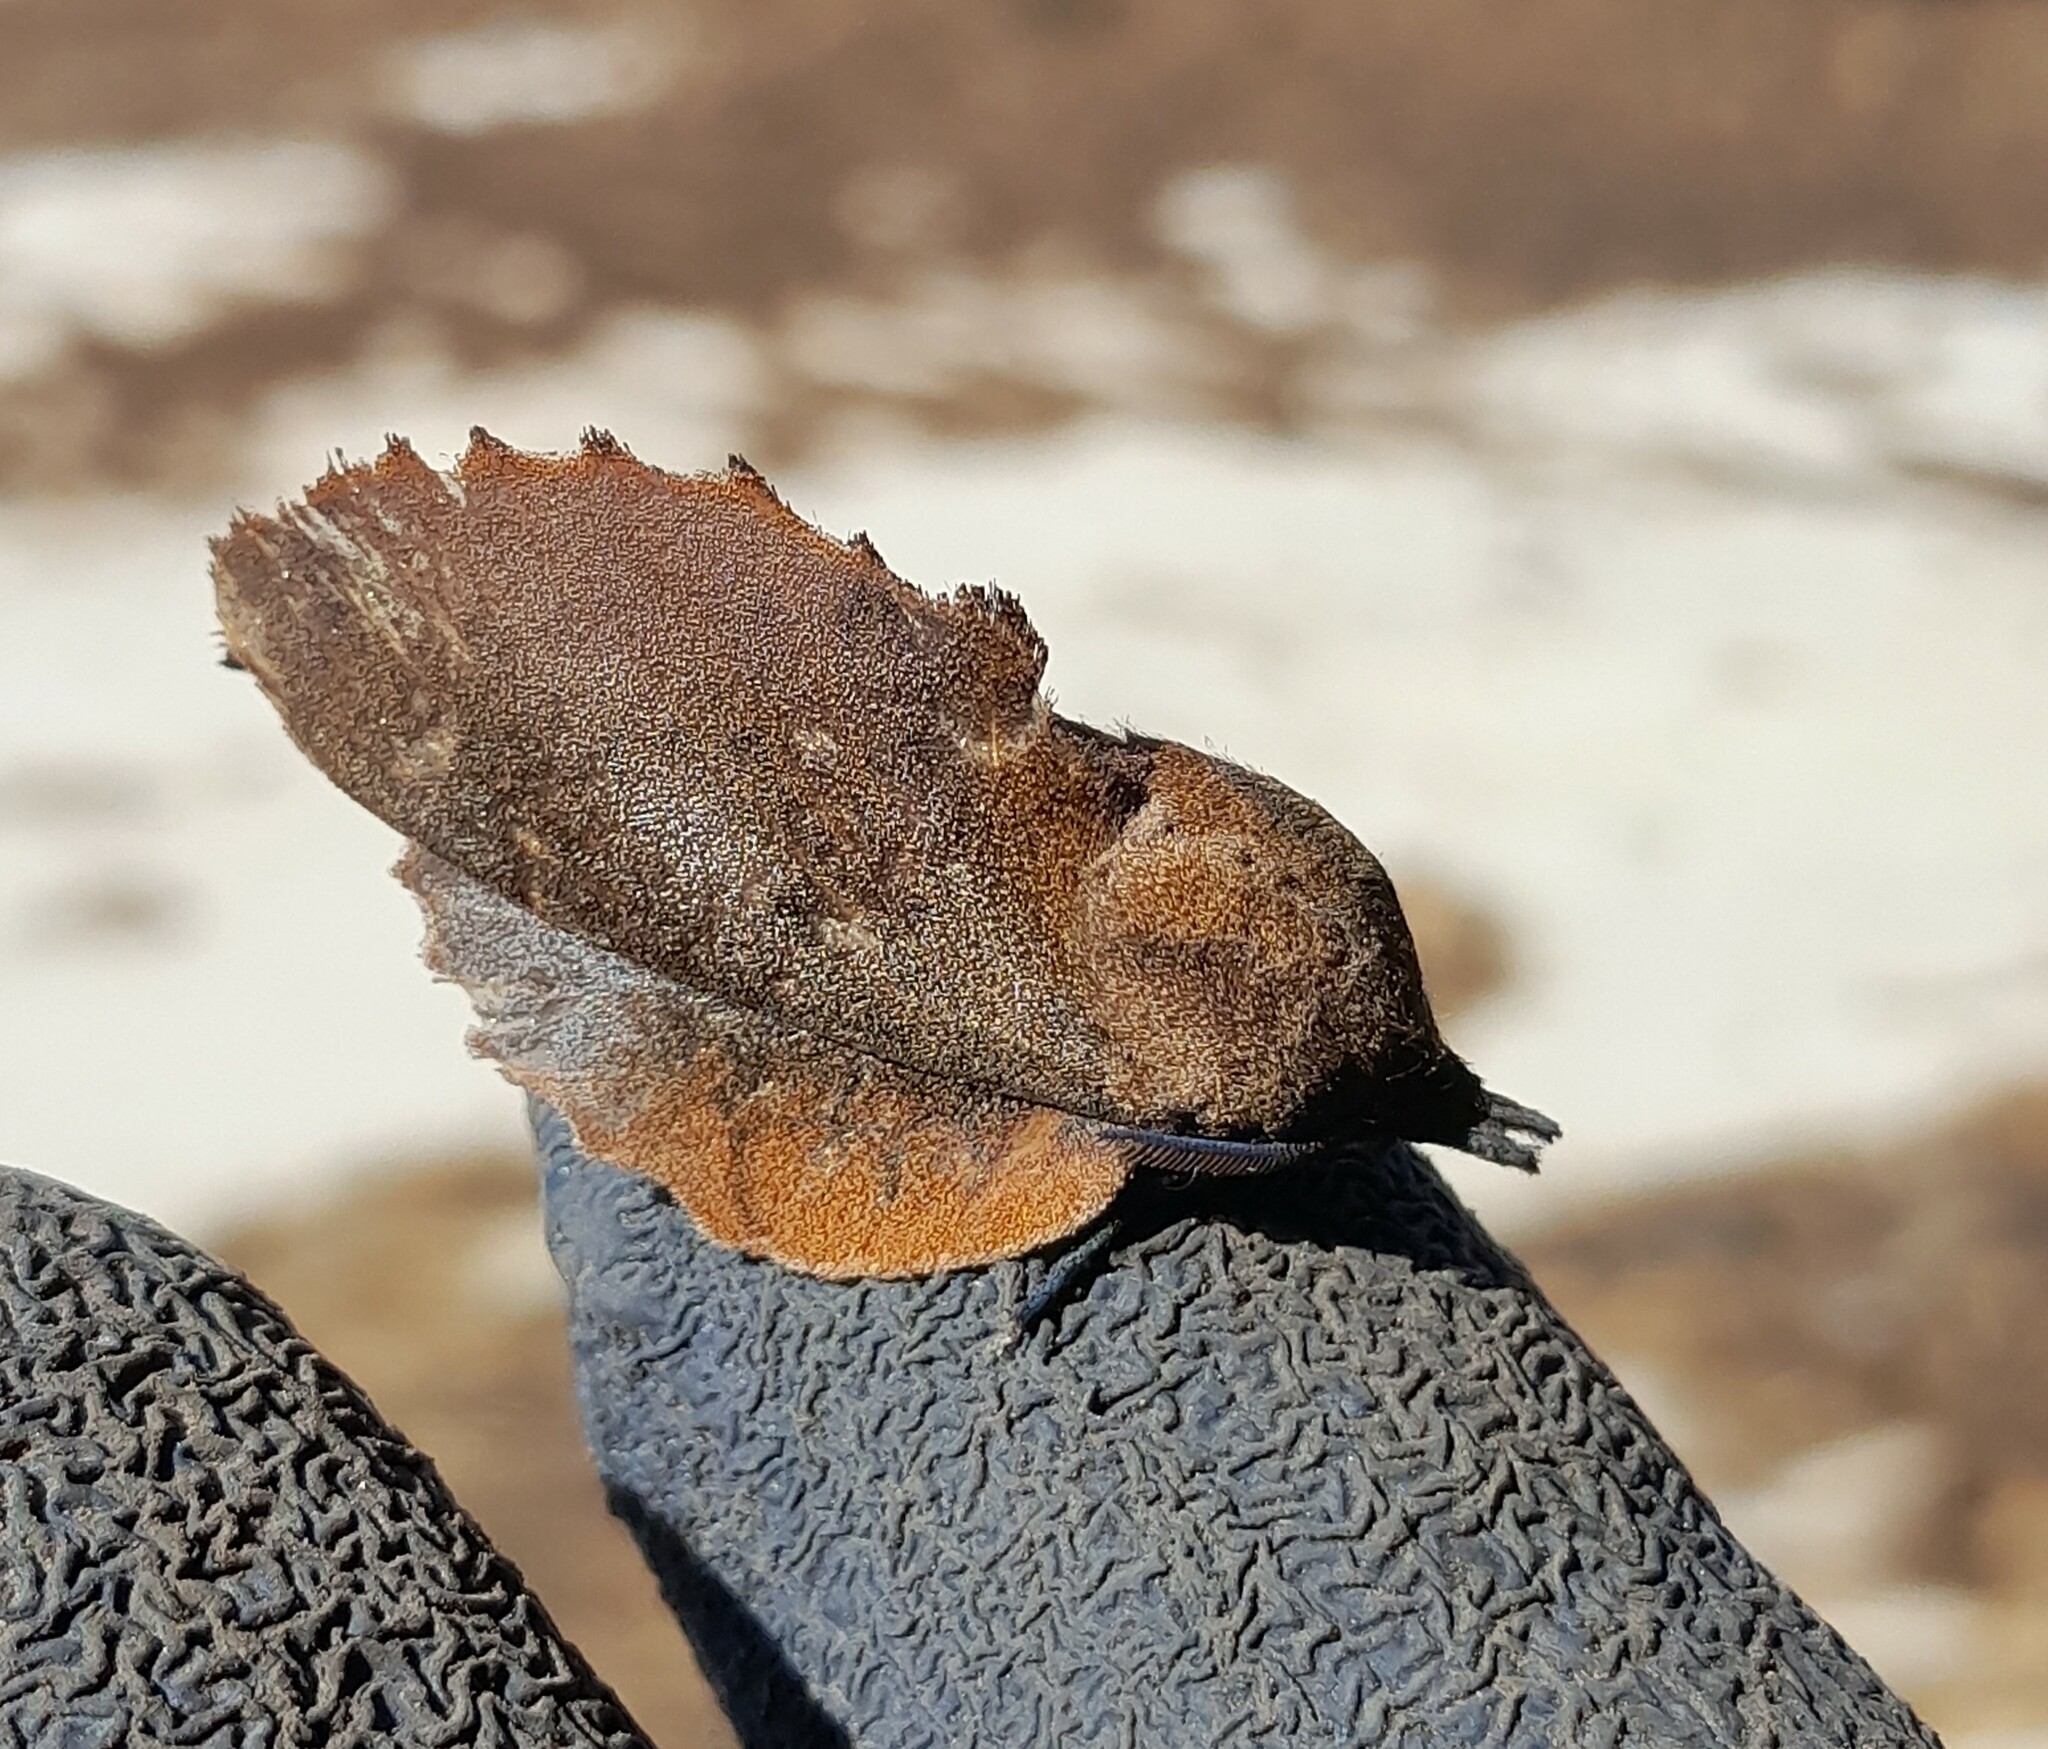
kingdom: Animalia
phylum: Arthropoda
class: Insecta
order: Lepidoptera
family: Lasiocampidae
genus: Gastropacha
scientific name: Gastropacha quercifolia
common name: Lappet
